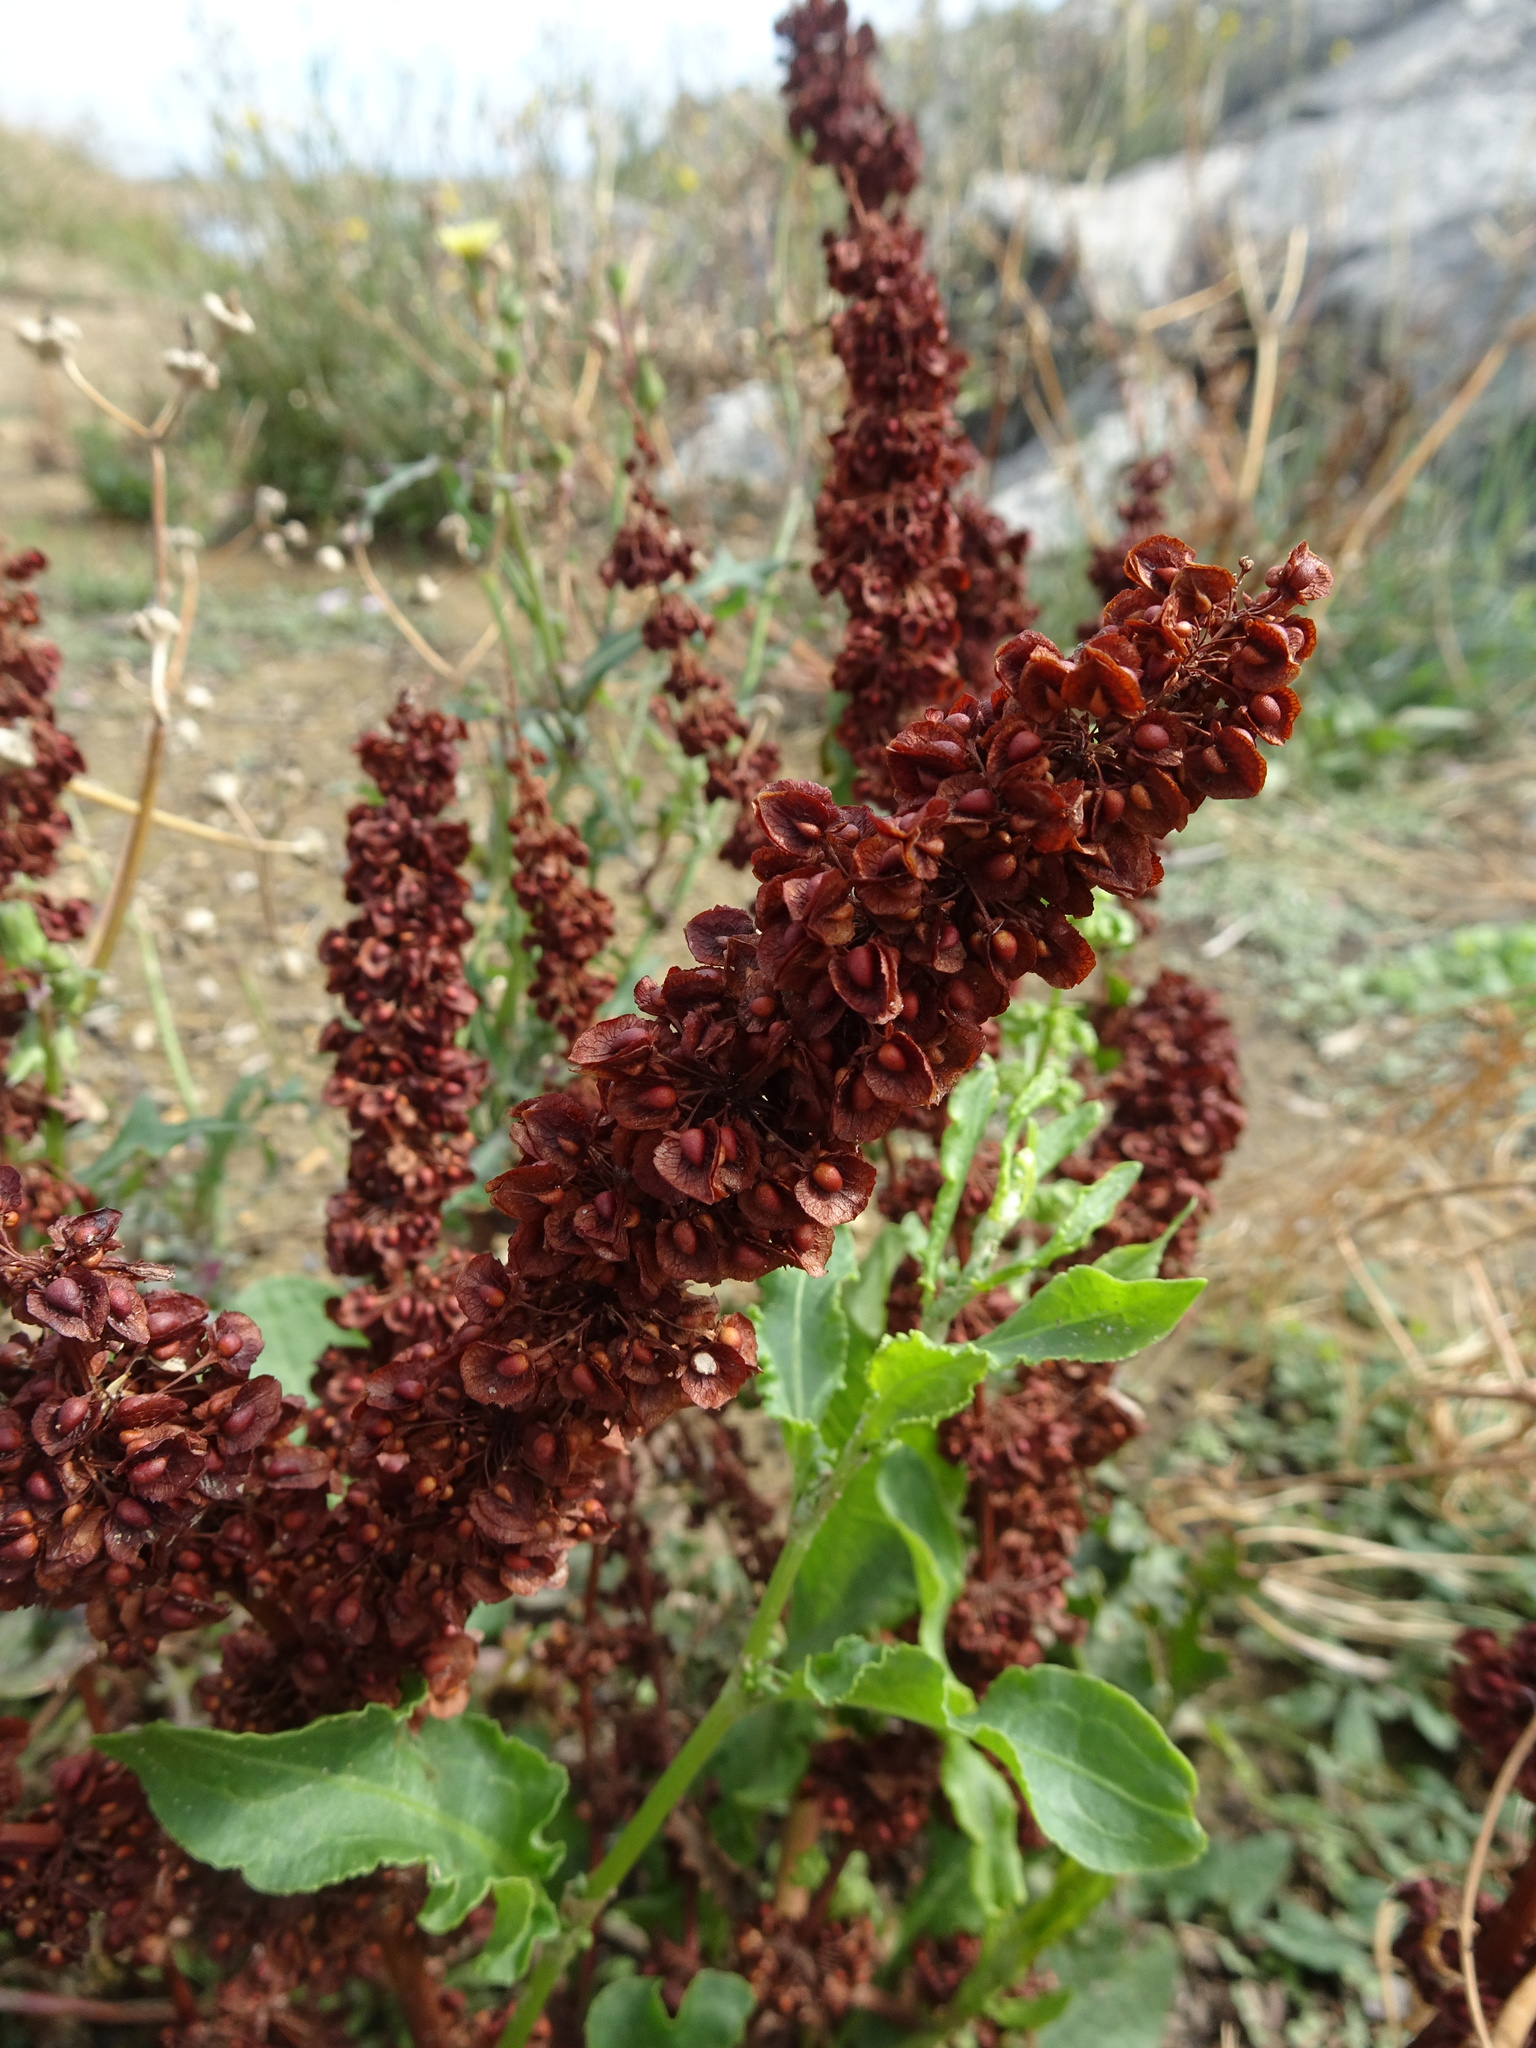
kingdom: Plantae
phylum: Tracheophyta
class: Magnoliopsida
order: Caryophyllales
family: Polygonaceae
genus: Rumex
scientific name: Rumex crispus
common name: Curled dock
